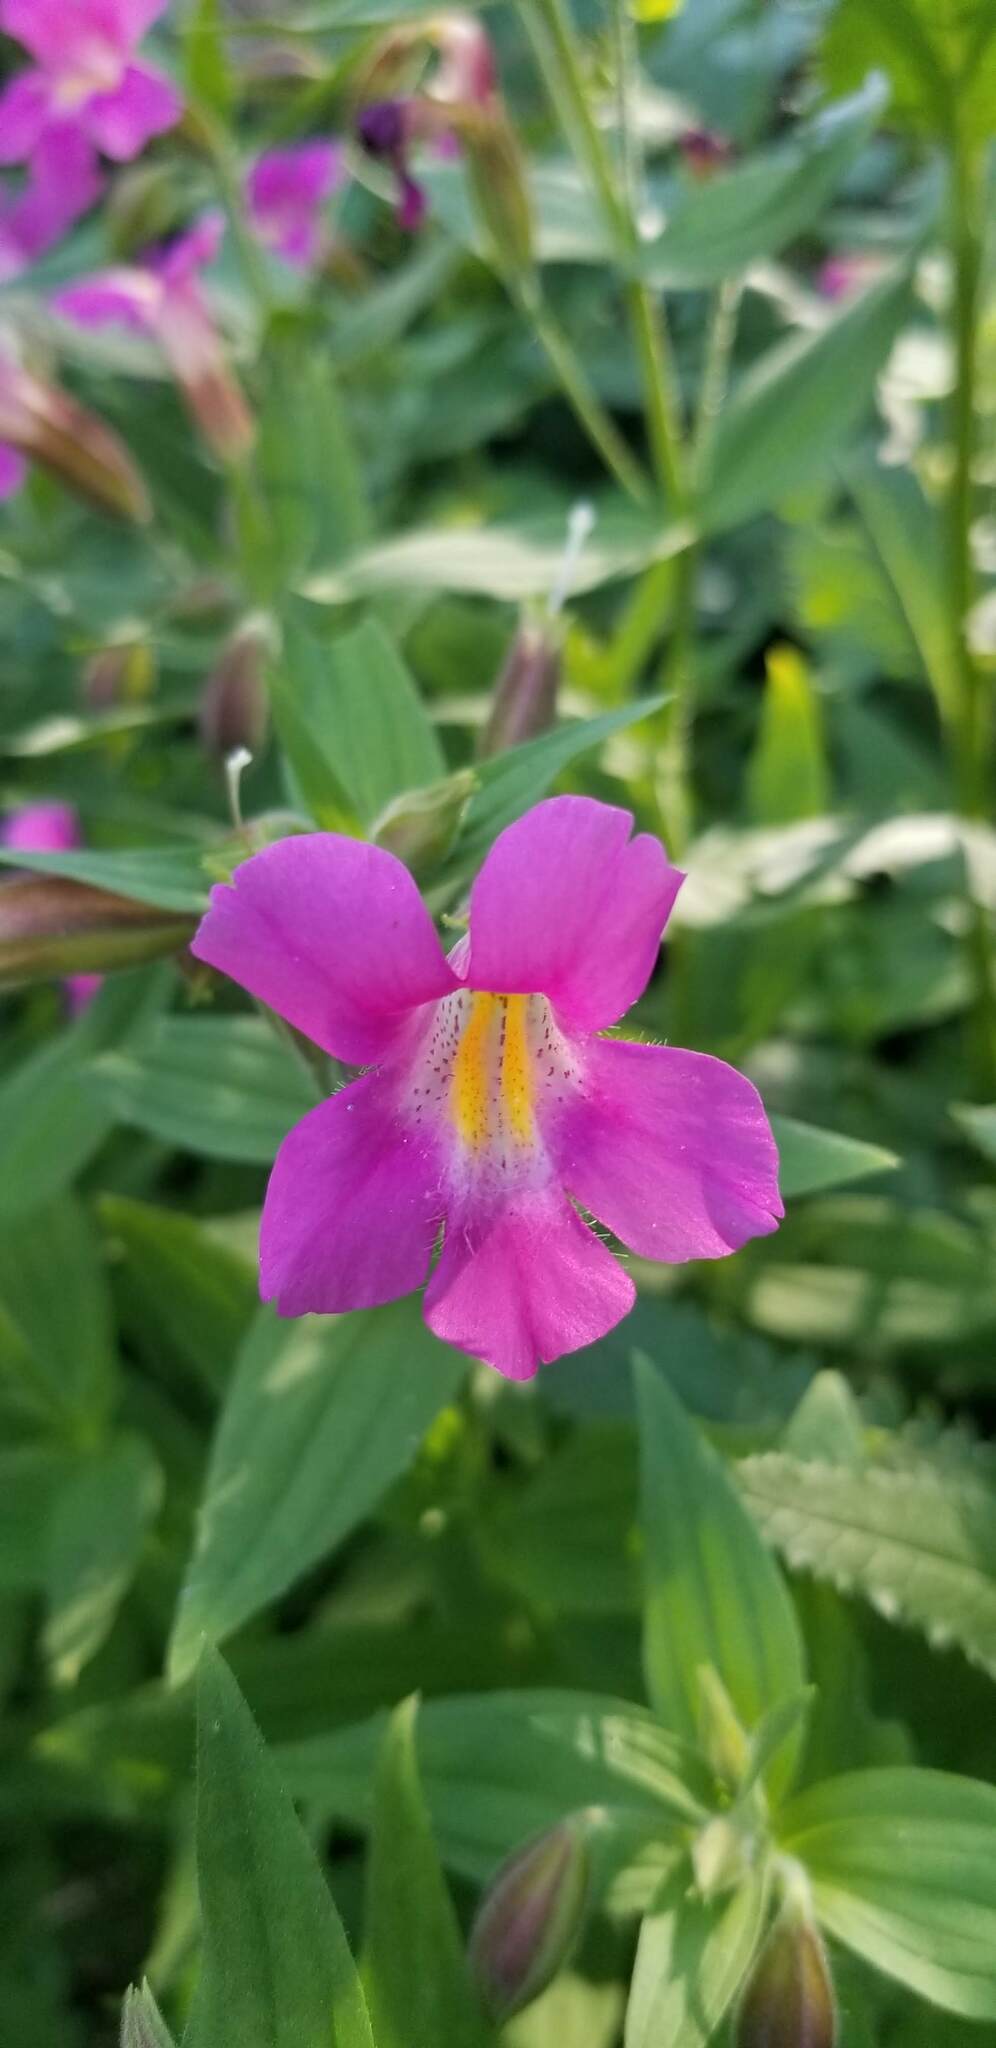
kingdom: Plantae
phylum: Tracheophyta
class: Magnoliopsida
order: Lamiales
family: Phrymaceae
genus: Erythranthe
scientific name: Erythranthe lewisii
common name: Lewis's monkey-flower
